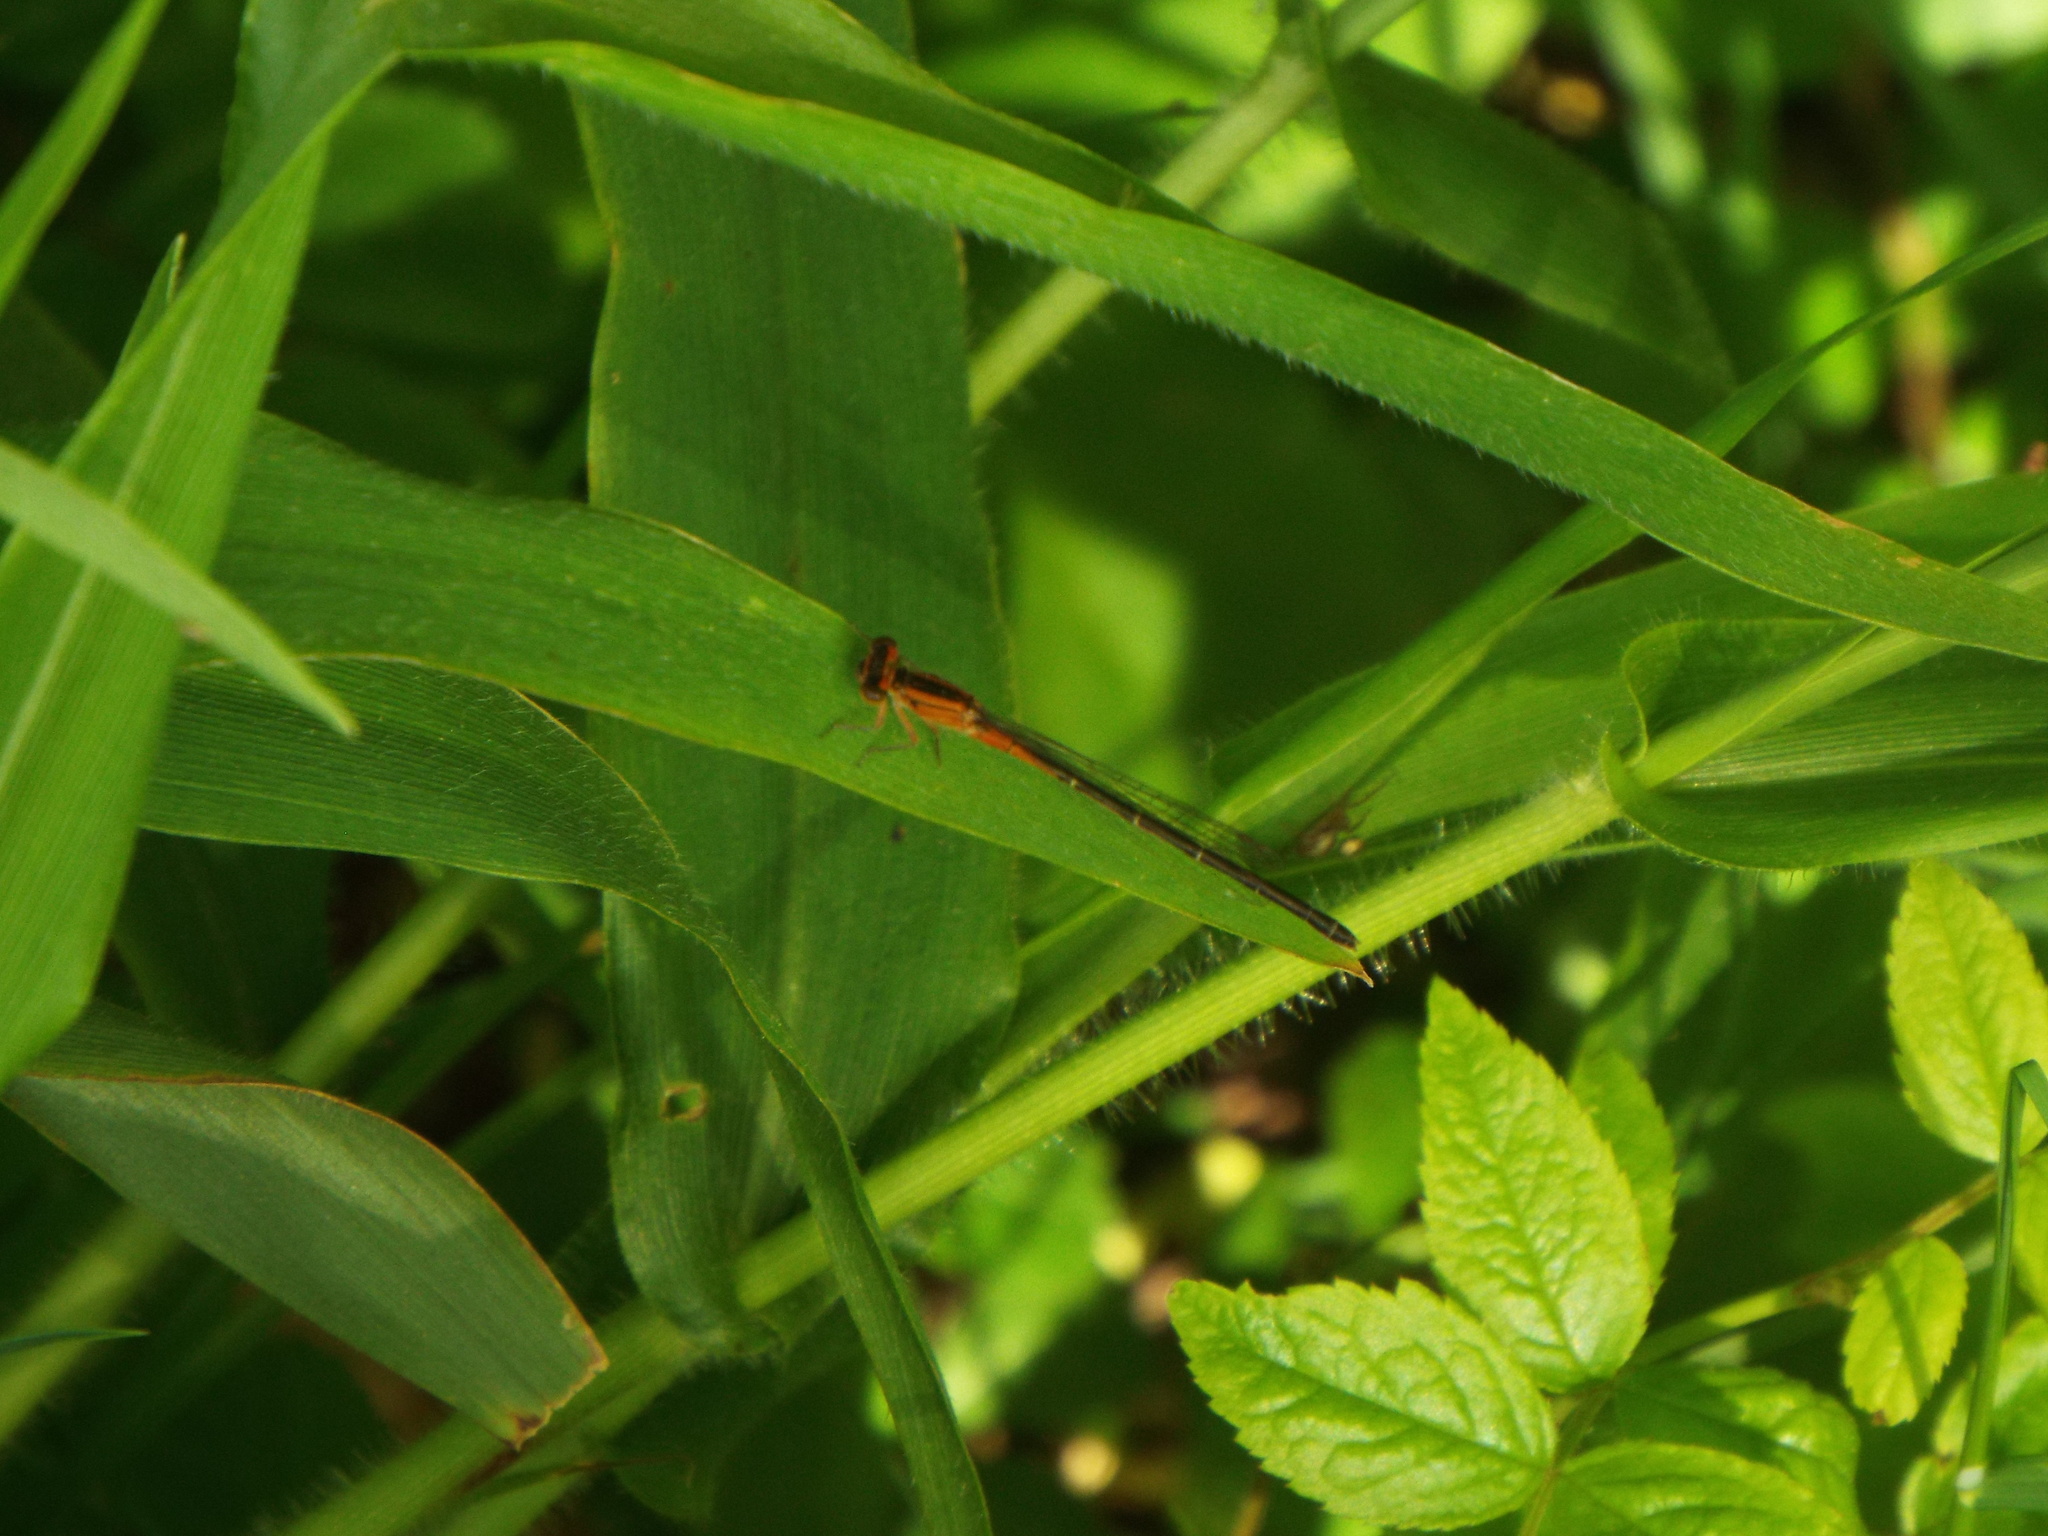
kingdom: Animalia
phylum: Arthropoda
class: Insecta
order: Odonata
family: Coenagrionidae
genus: Ischnura
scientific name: Ischnura verticalis
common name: Eastern forktail
